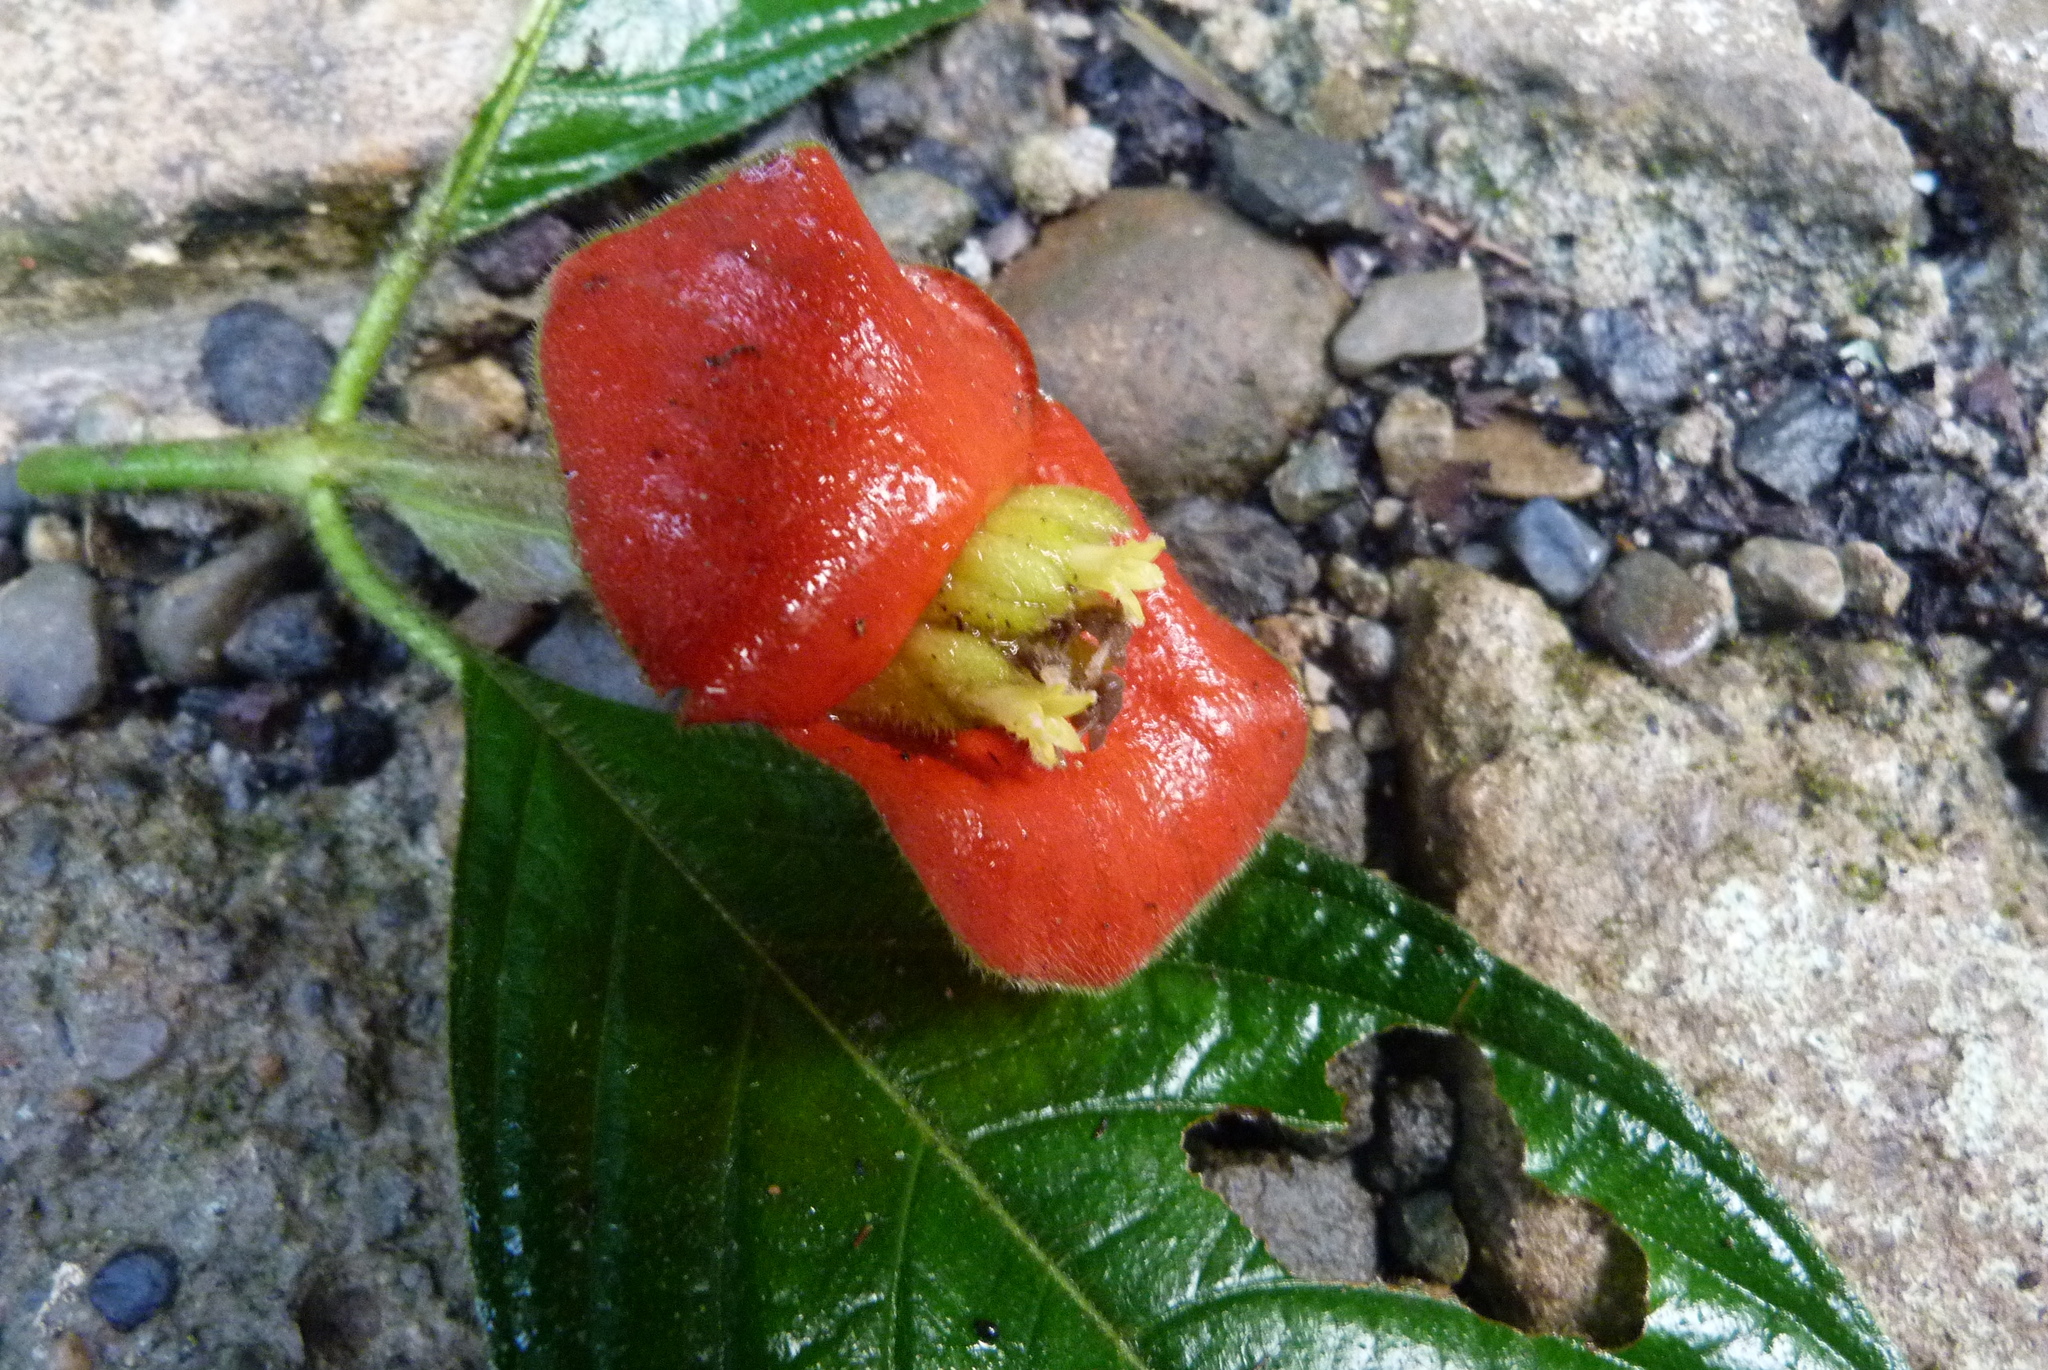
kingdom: Plantae
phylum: Tracheophyta
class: Magnoliopsida
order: Gentianales
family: Rubiaceae
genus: Palicourea
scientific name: Palicourea tomentosa
